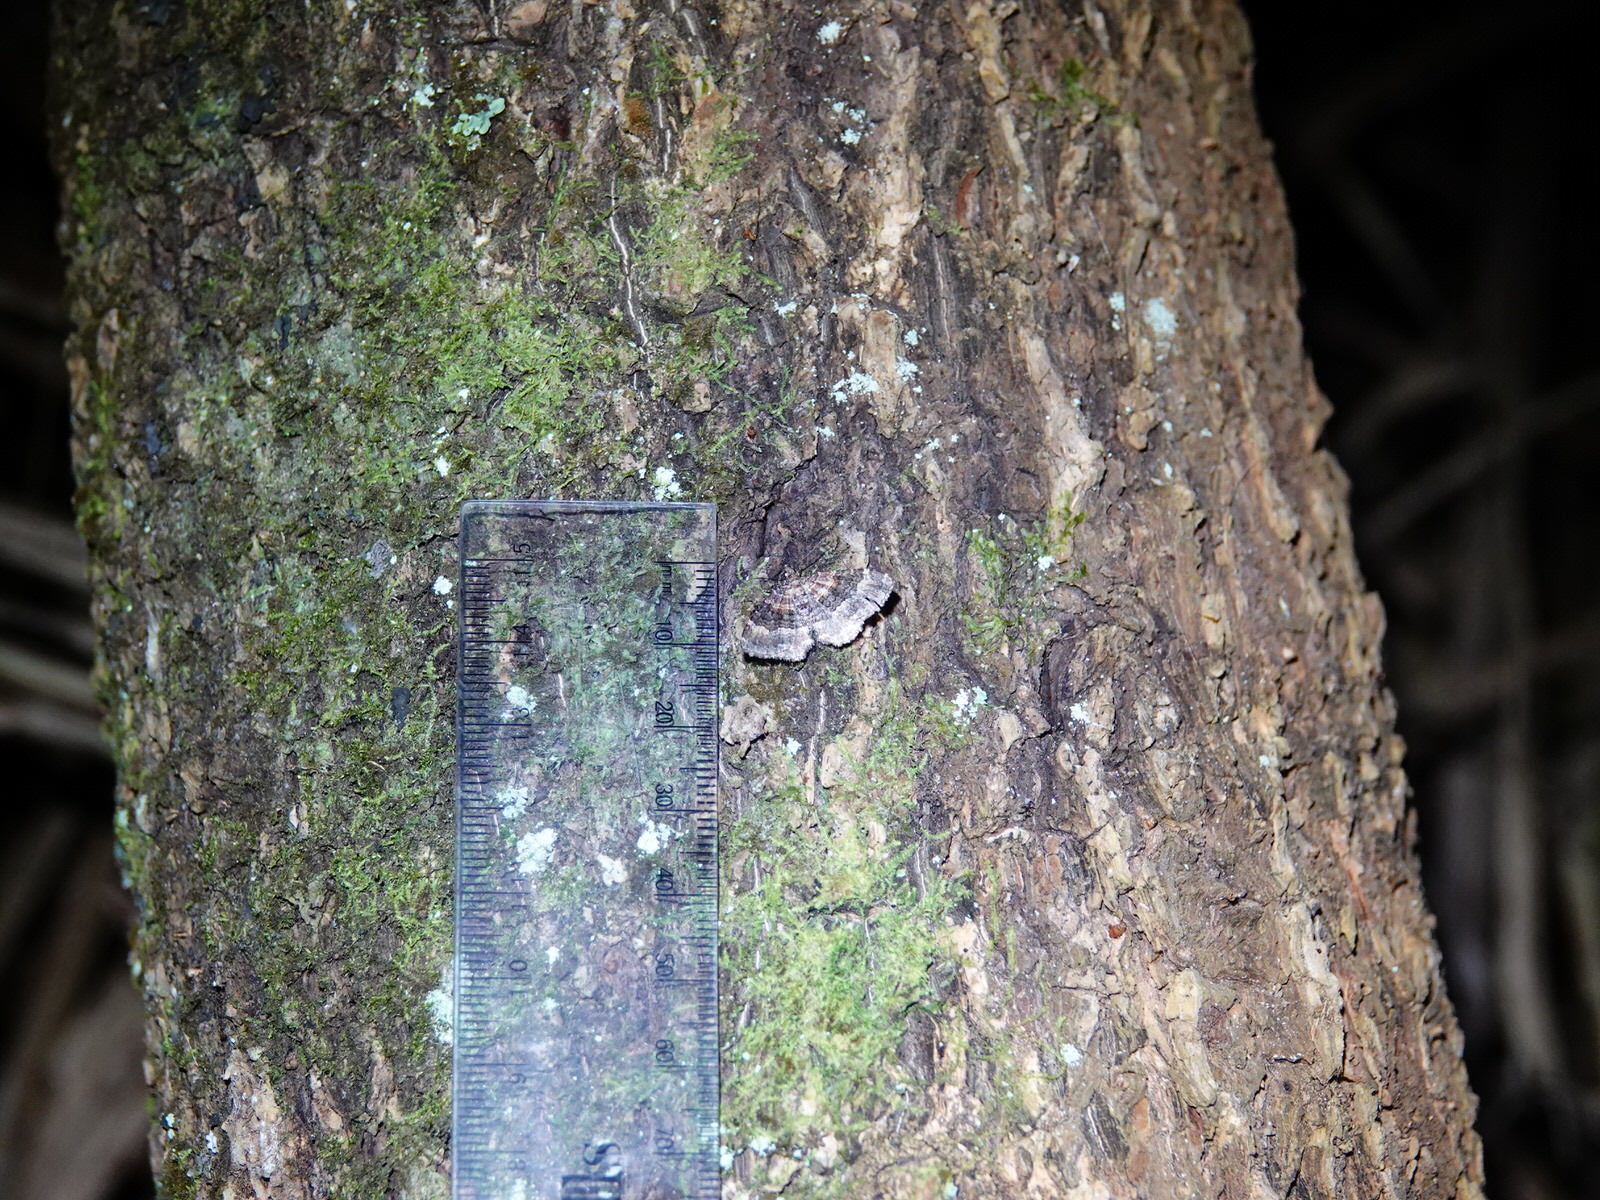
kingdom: Animalia
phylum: Arthropoda
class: Insecta
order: Lepidoptera
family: Geometridae
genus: Epyaxa
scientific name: Epyaxa lucidata
